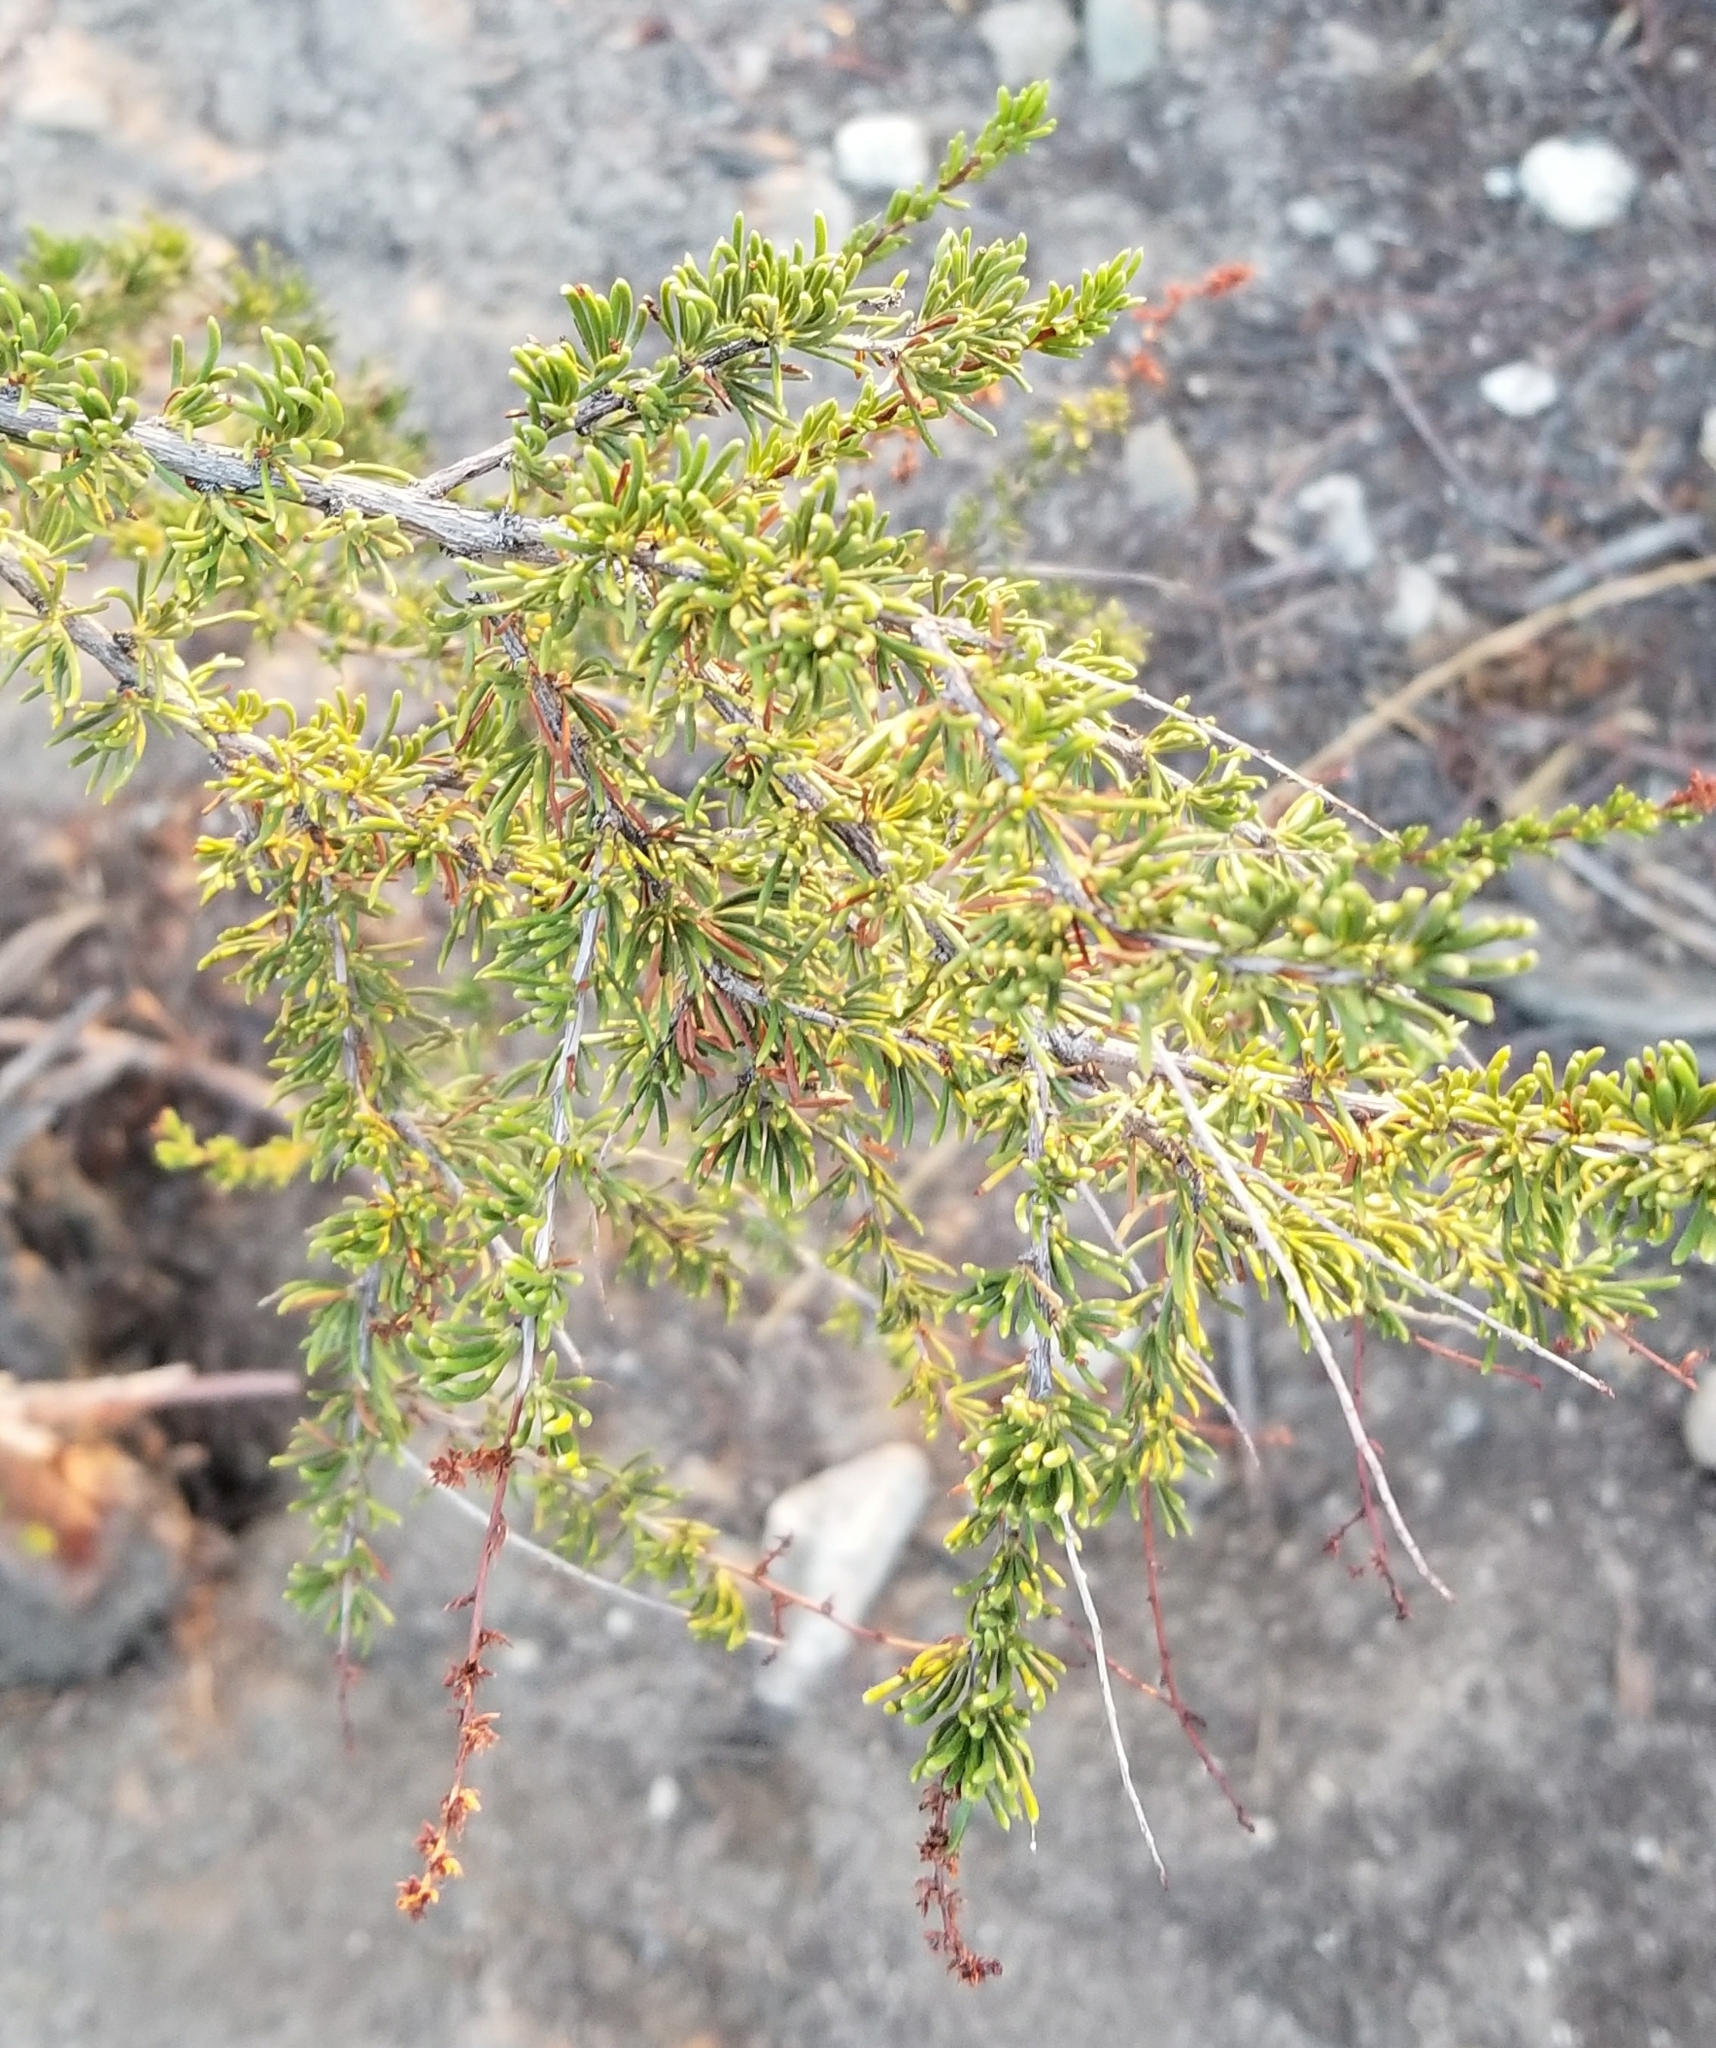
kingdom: Plantae
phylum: Tracheophyta
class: Magnoliopsida
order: Rosales
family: Rosaceae
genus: Adenostoma
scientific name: Adenostoma fasciculatum
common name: Chamise
